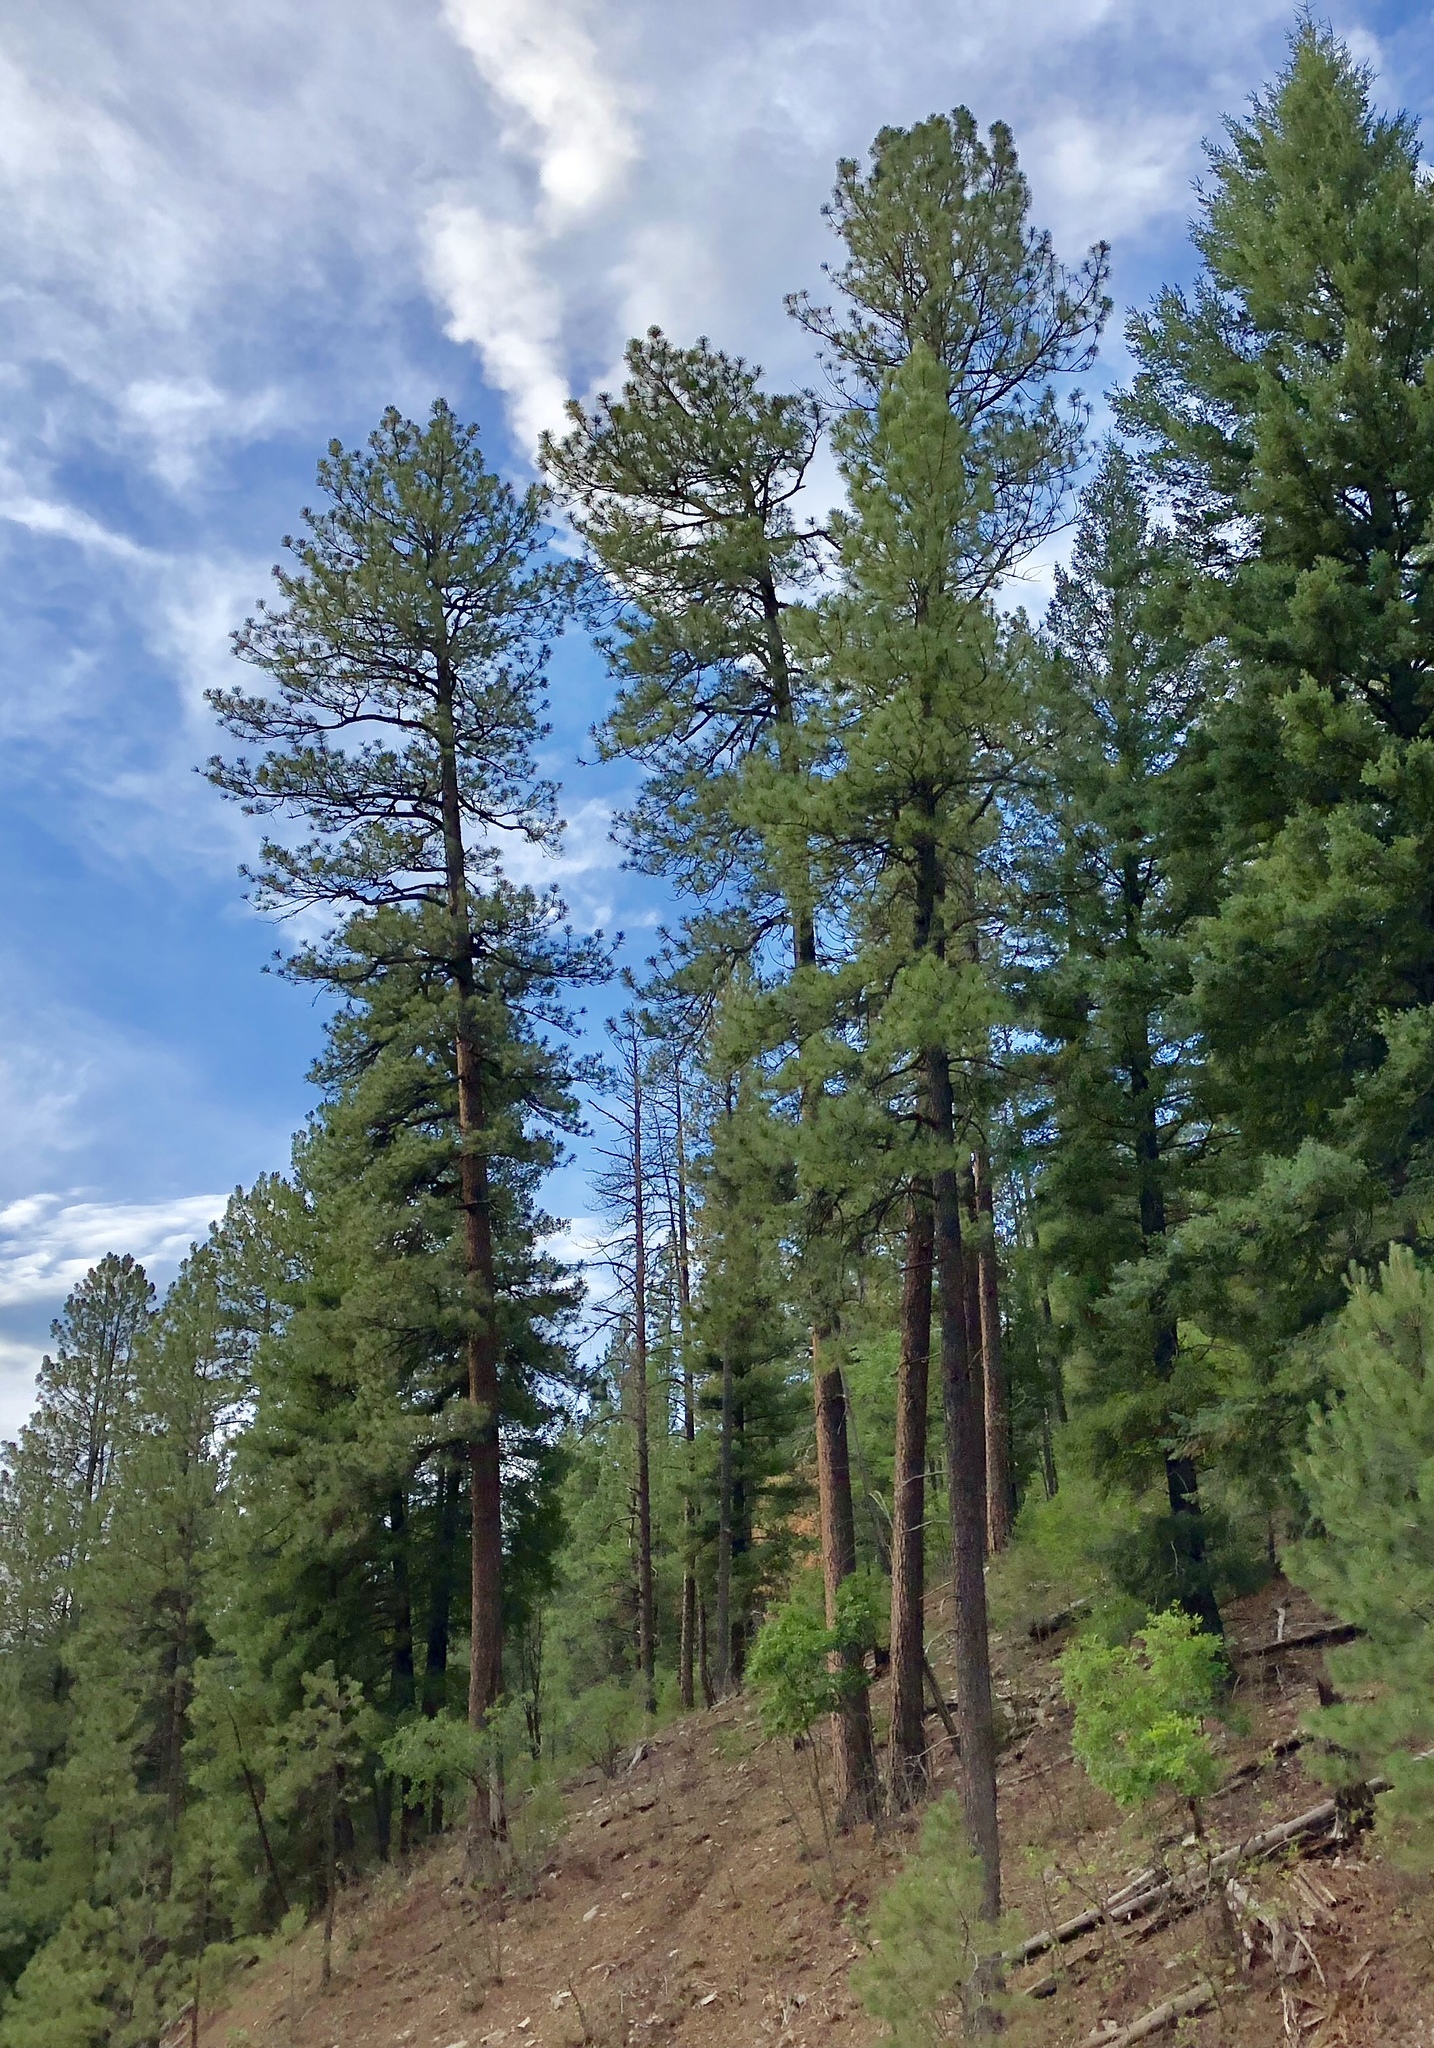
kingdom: Plantae
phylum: Tracheophyta
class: Pinopsida
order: Pinales
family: Pinaceae
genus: Pinus
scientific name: Pinus ponderosa
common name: Western yellow-pine
